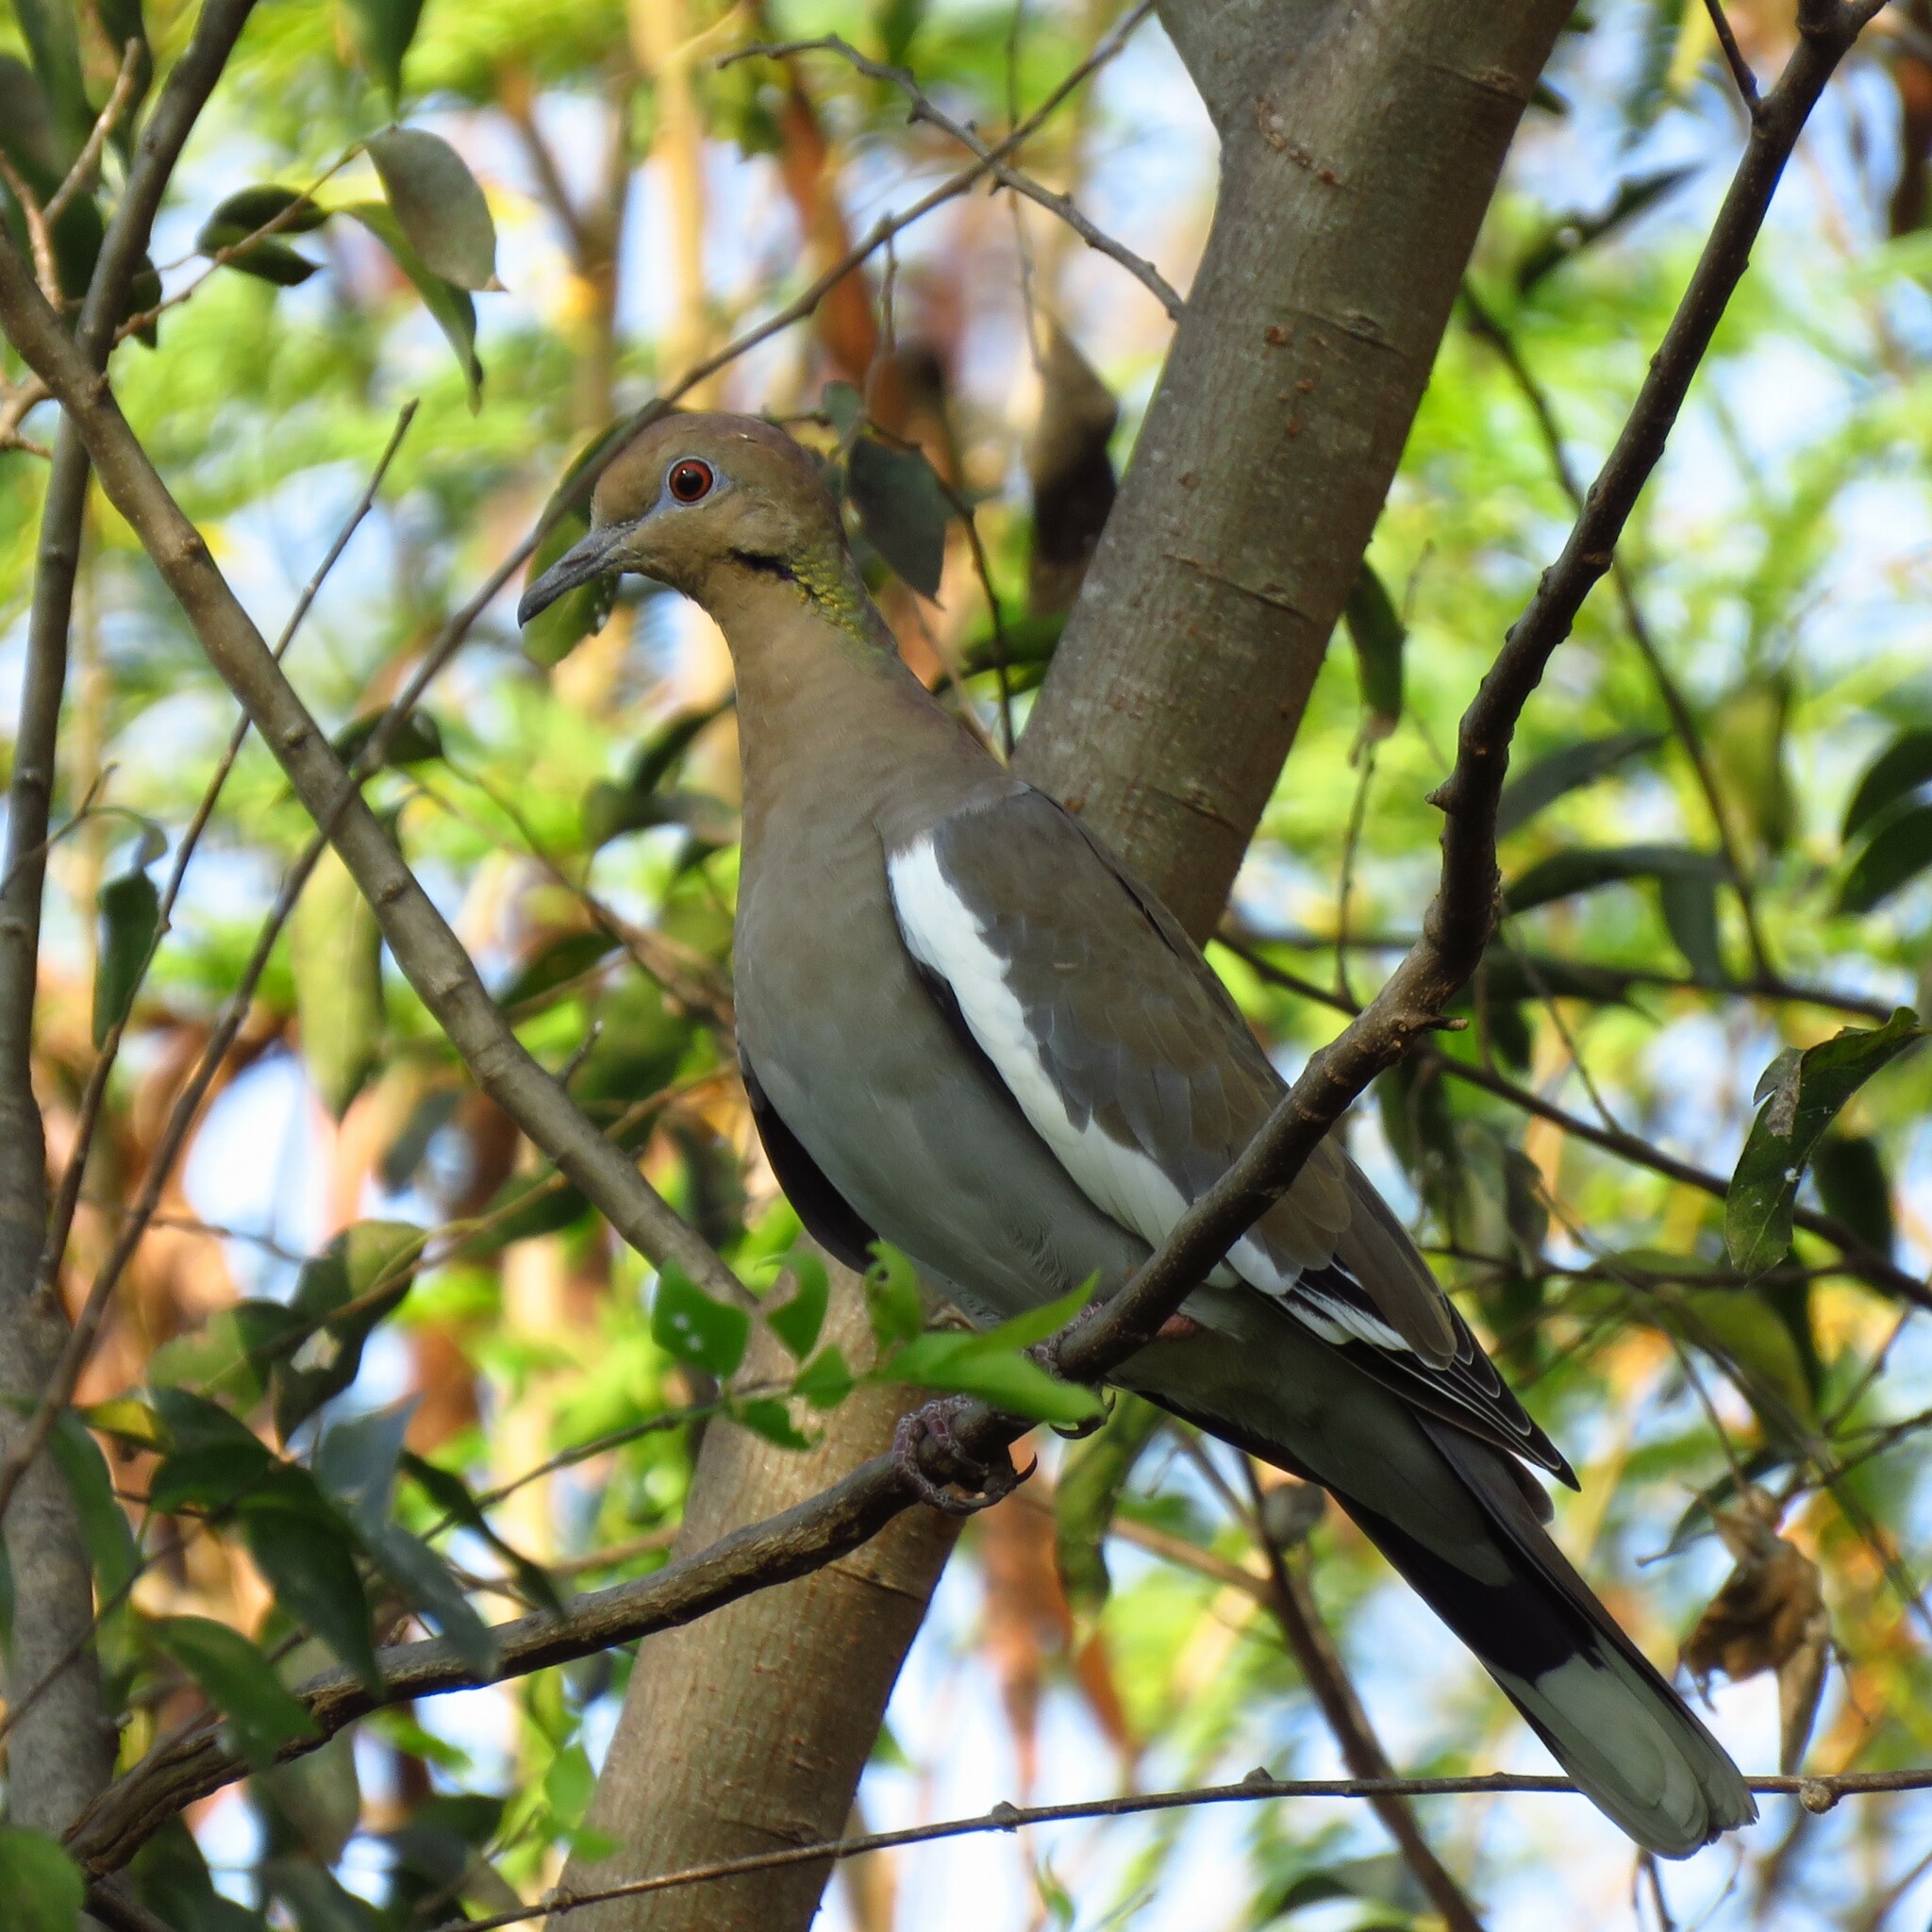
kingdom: Animalia
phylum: Chordata
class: Aves
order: Columbiformes
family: Columbidae
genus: Zenaida
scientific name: Zenaida asiatica
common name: White-winged dove
